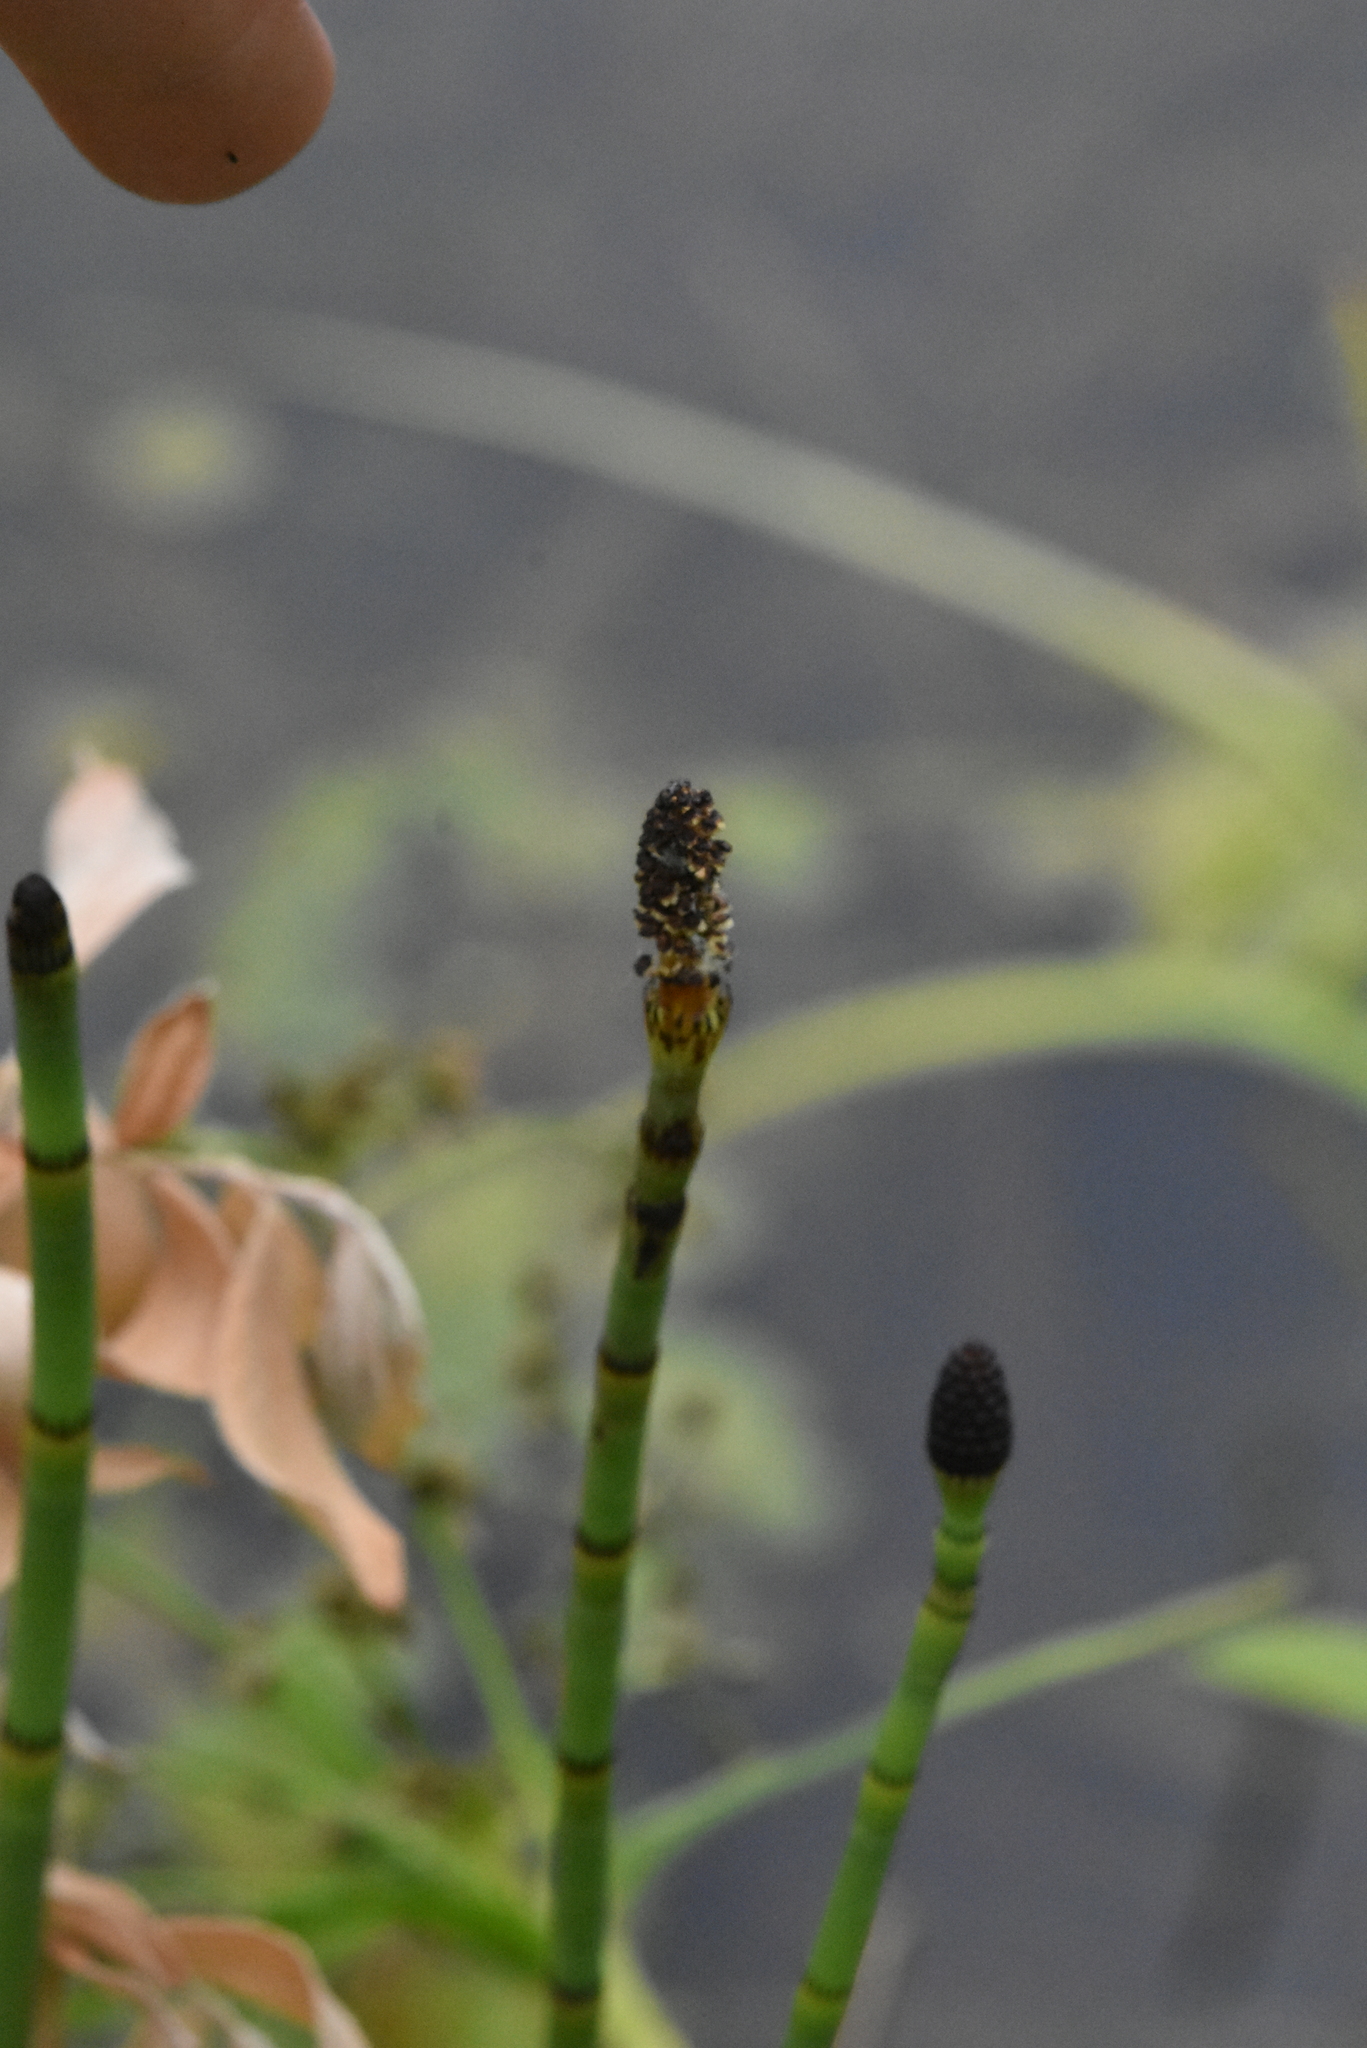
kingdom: Plantae
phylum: Tracheophyta
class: Polypodiopsida
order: Equisetales
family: Equisetaceae
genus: Equisetum
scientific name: Equisetum fluviatile
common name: Water horsetail
